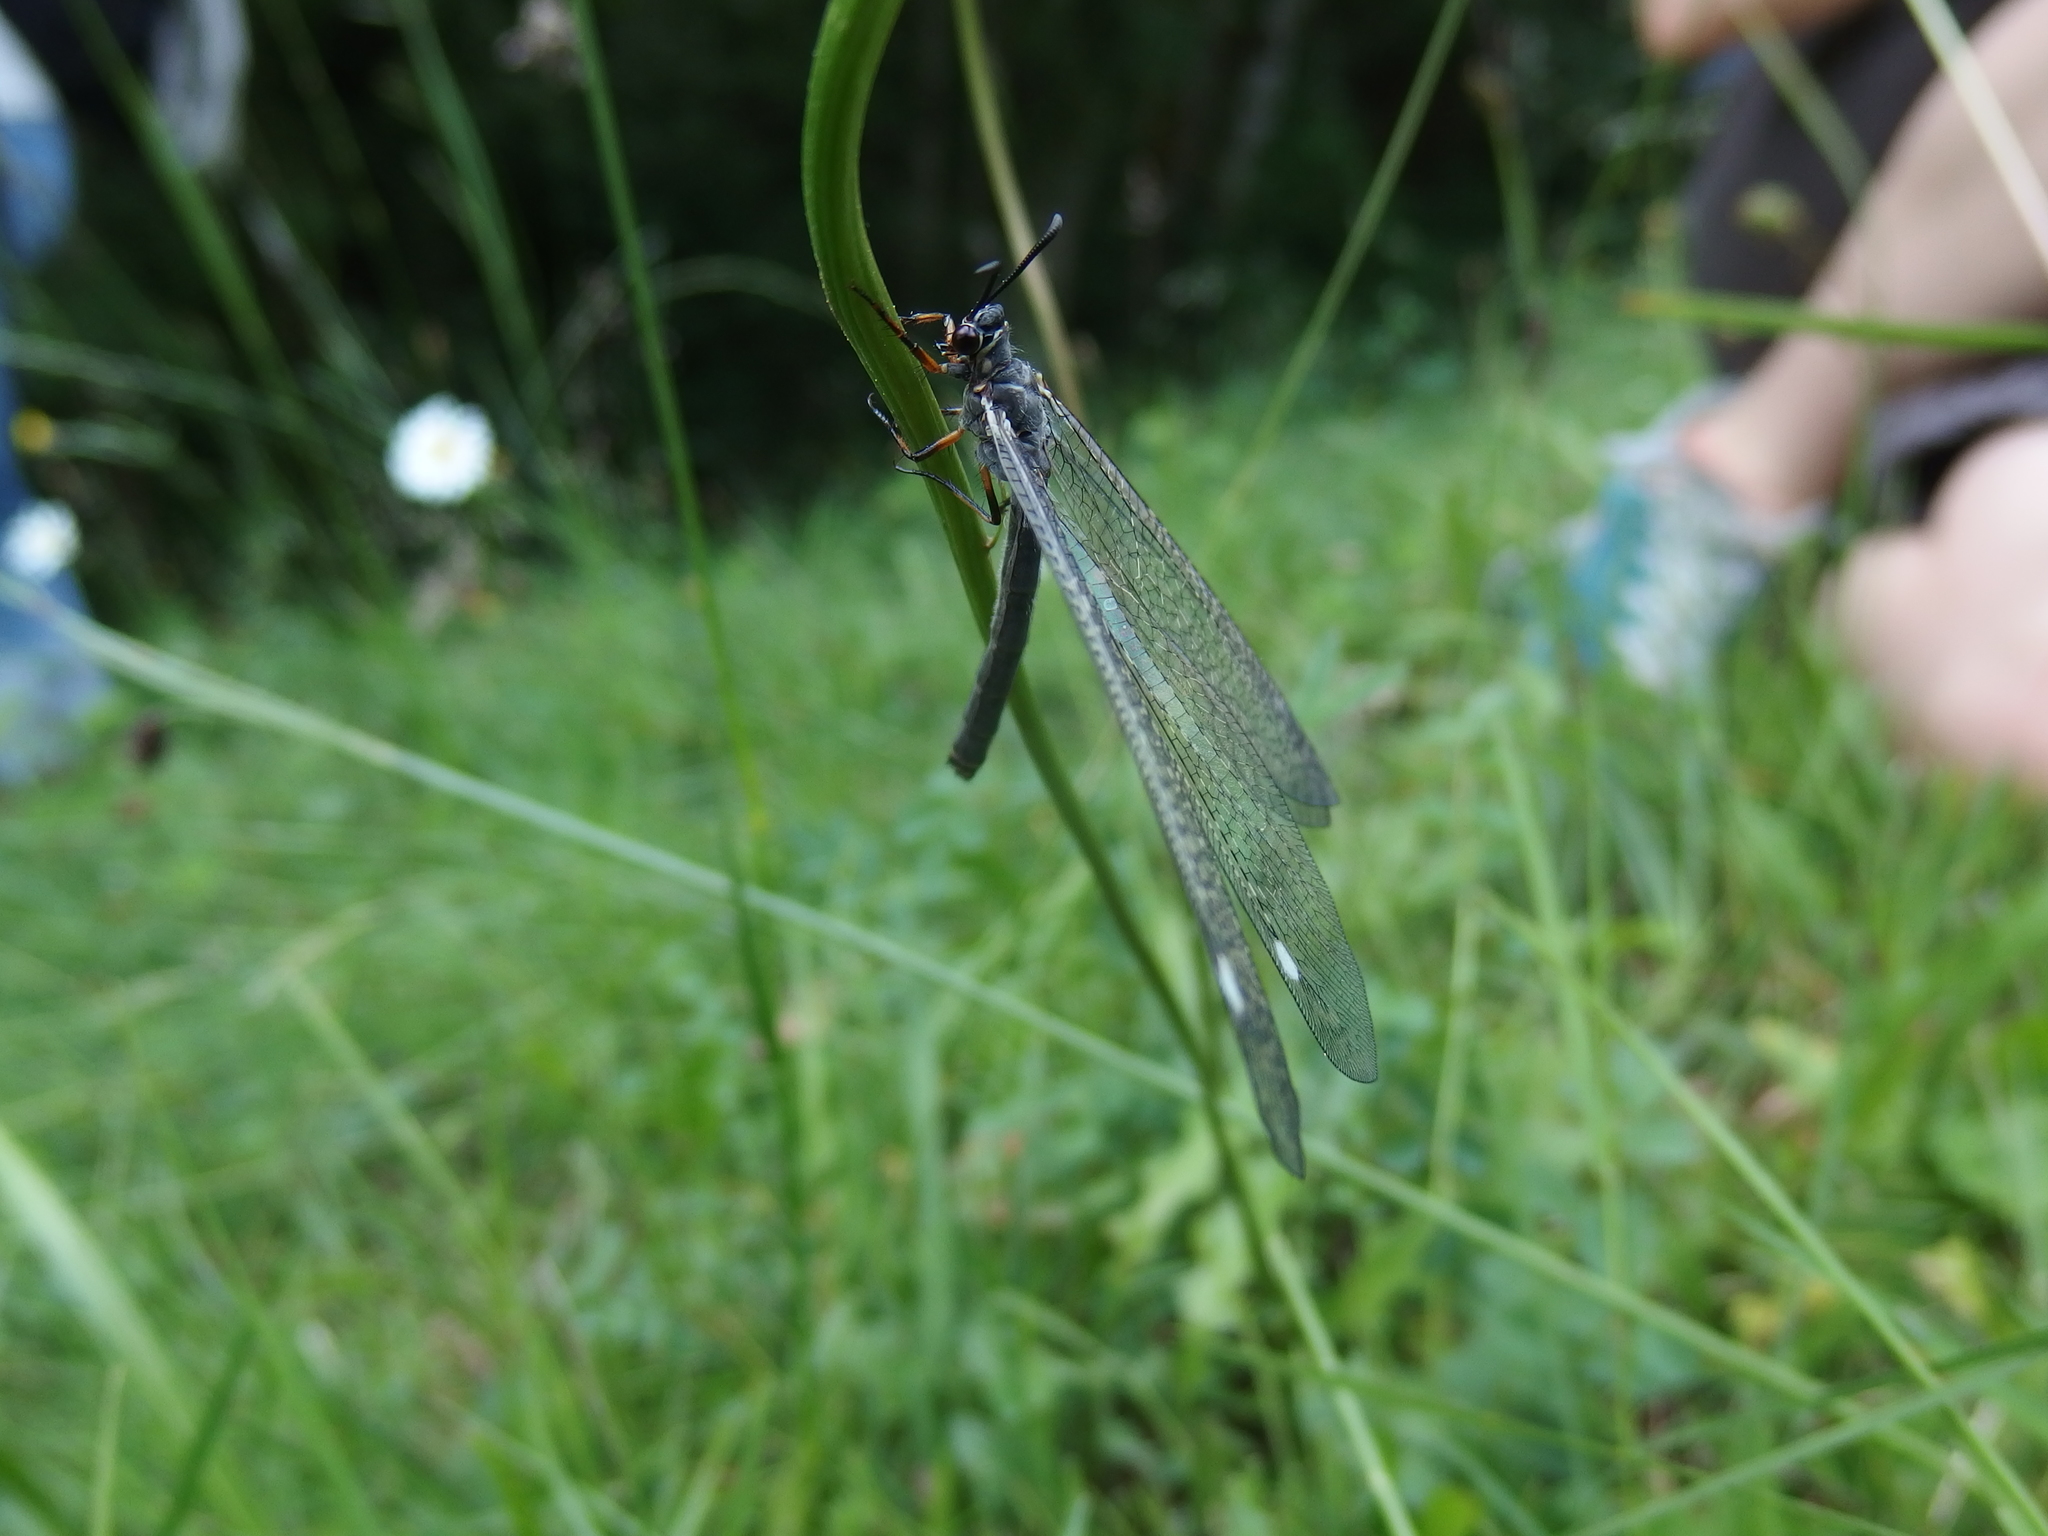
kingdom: Animalia
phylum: Arthropoda
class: Insecta
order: Neuroptera
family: Myrmeleontidae
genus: Myrmeleon
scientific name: Myrmeleon formicarius
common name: Ant-lion
